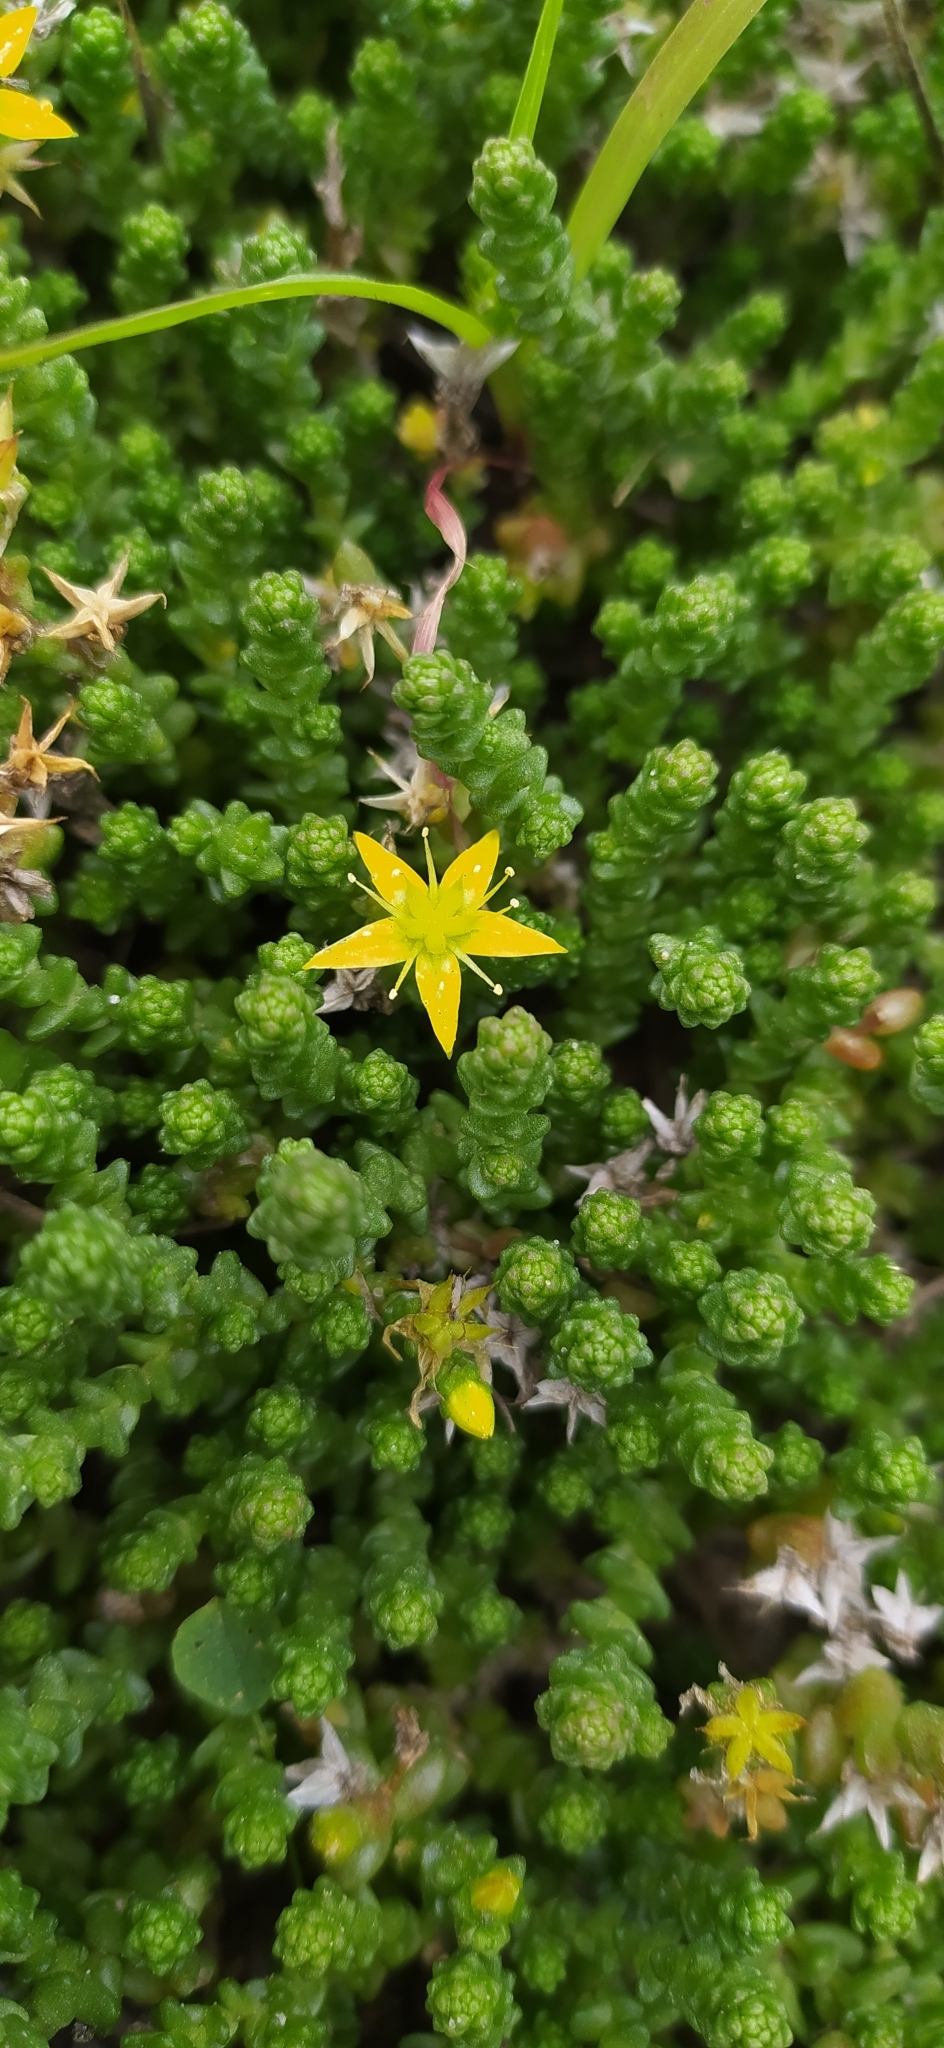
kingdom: Plantae
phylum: Tracheophyta
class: Magnoliopsida
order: Saxifragales
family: Crassulaceae
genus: Sedum
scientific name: Sedum acre
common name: Biting stonecrop
